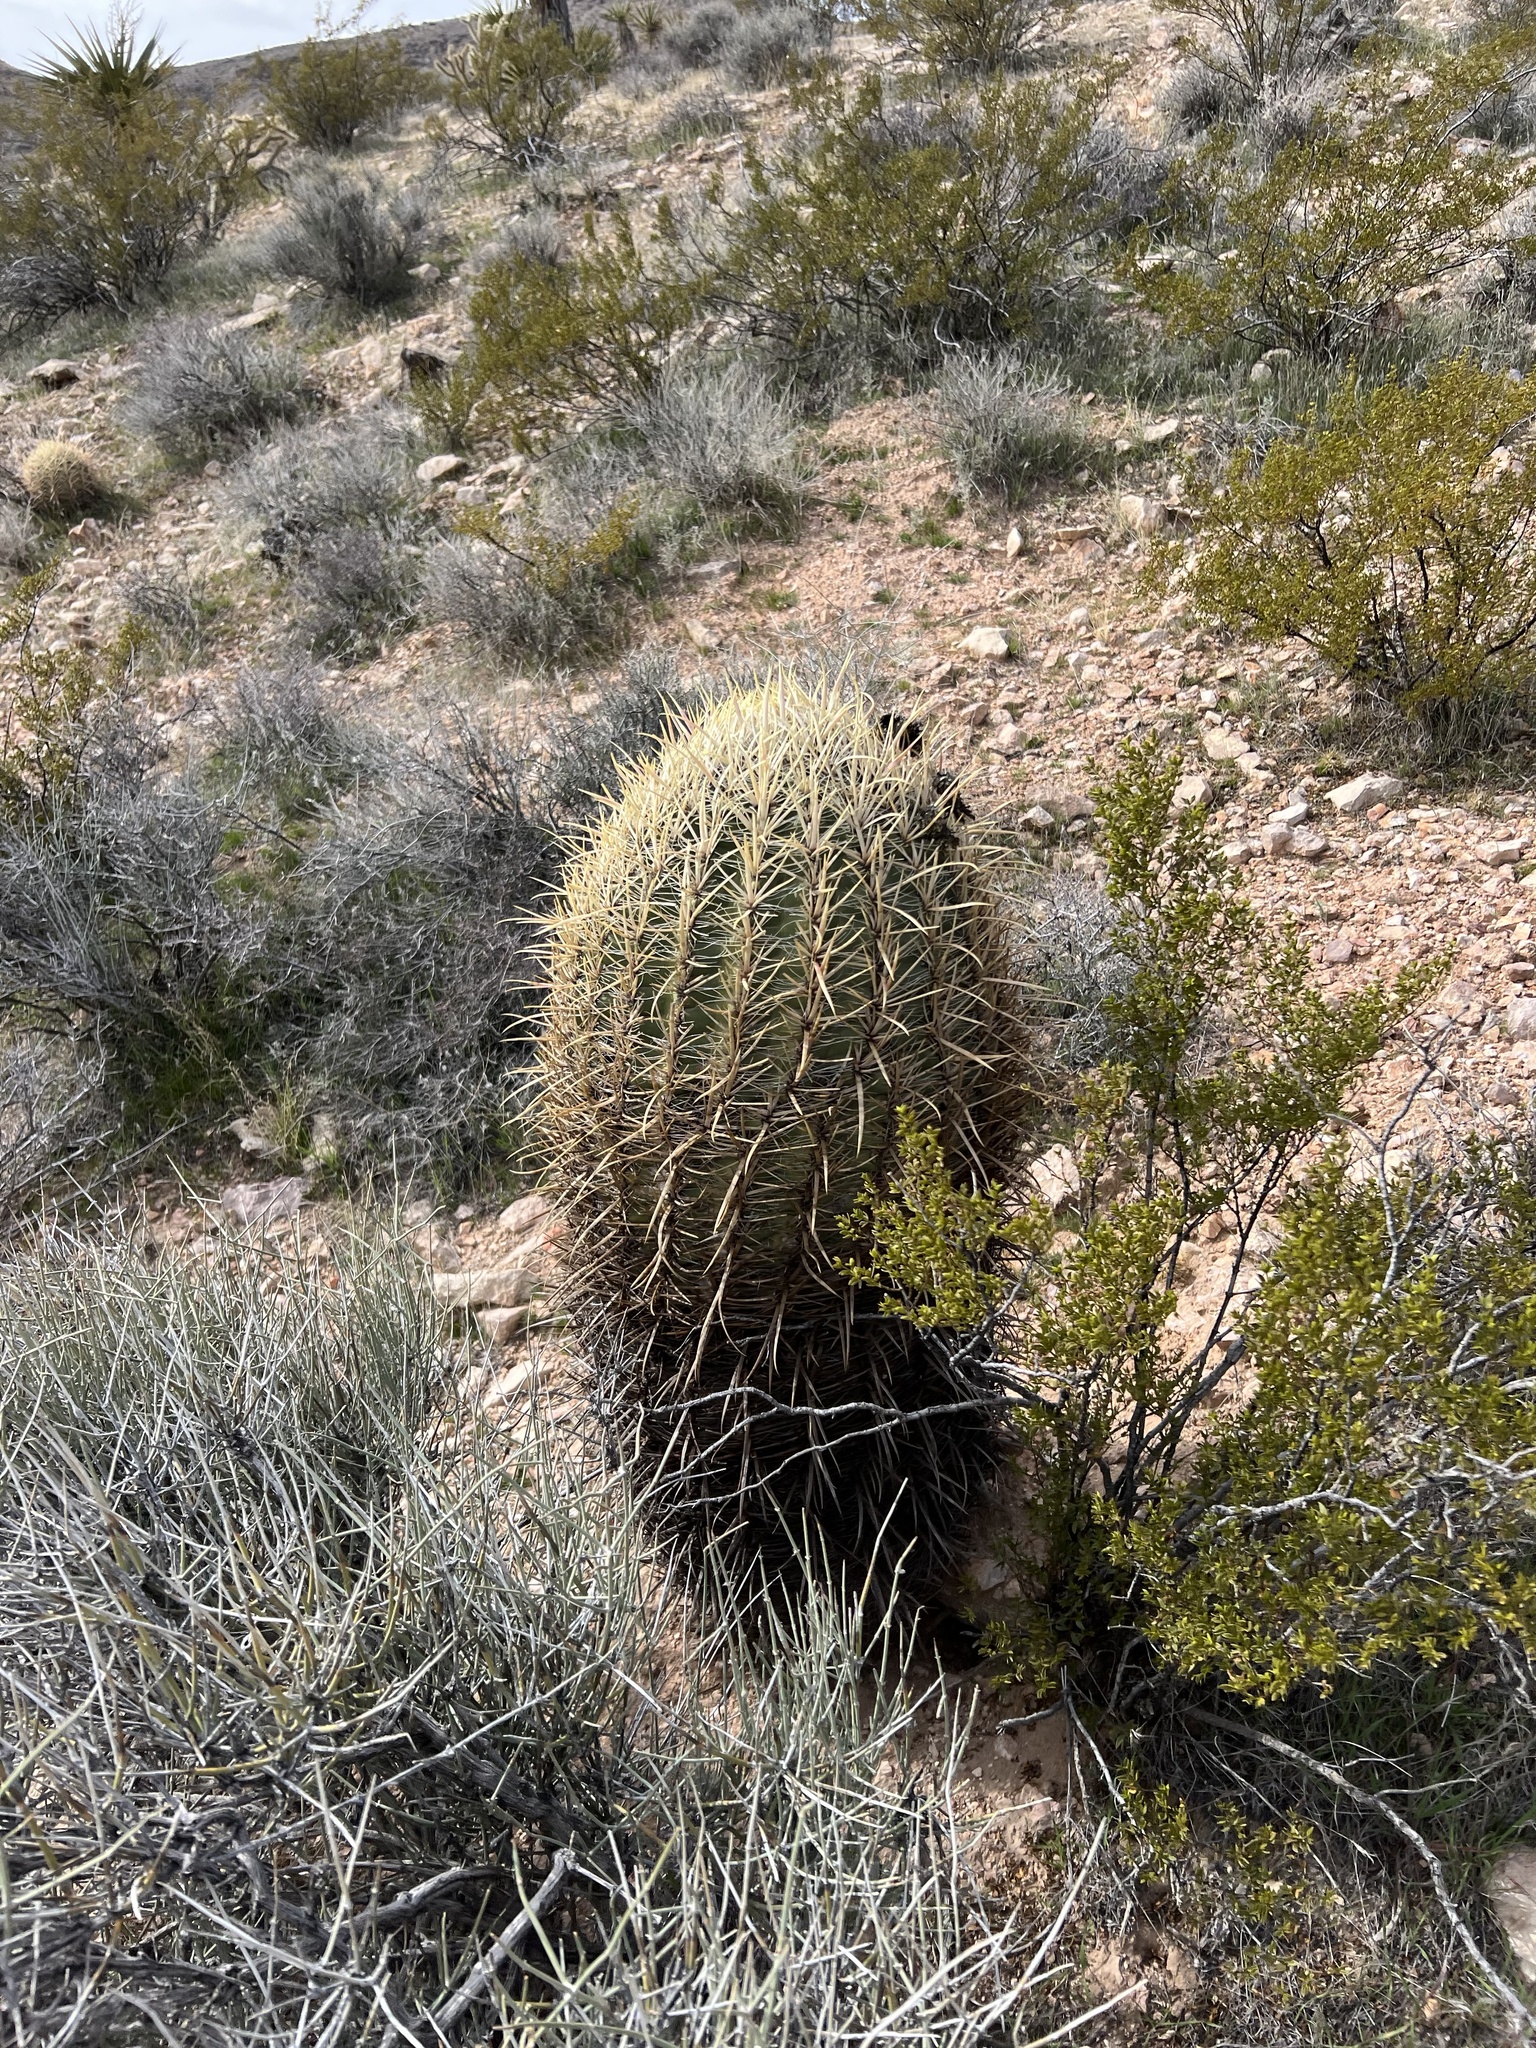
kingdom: Plantae
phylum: Tracheophyta
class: Magnoliopsida
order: Caryophyllales
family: Cactaceae
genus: Ferocactus
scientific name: Ferocactus cylindraceus
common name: California barrel cactus
